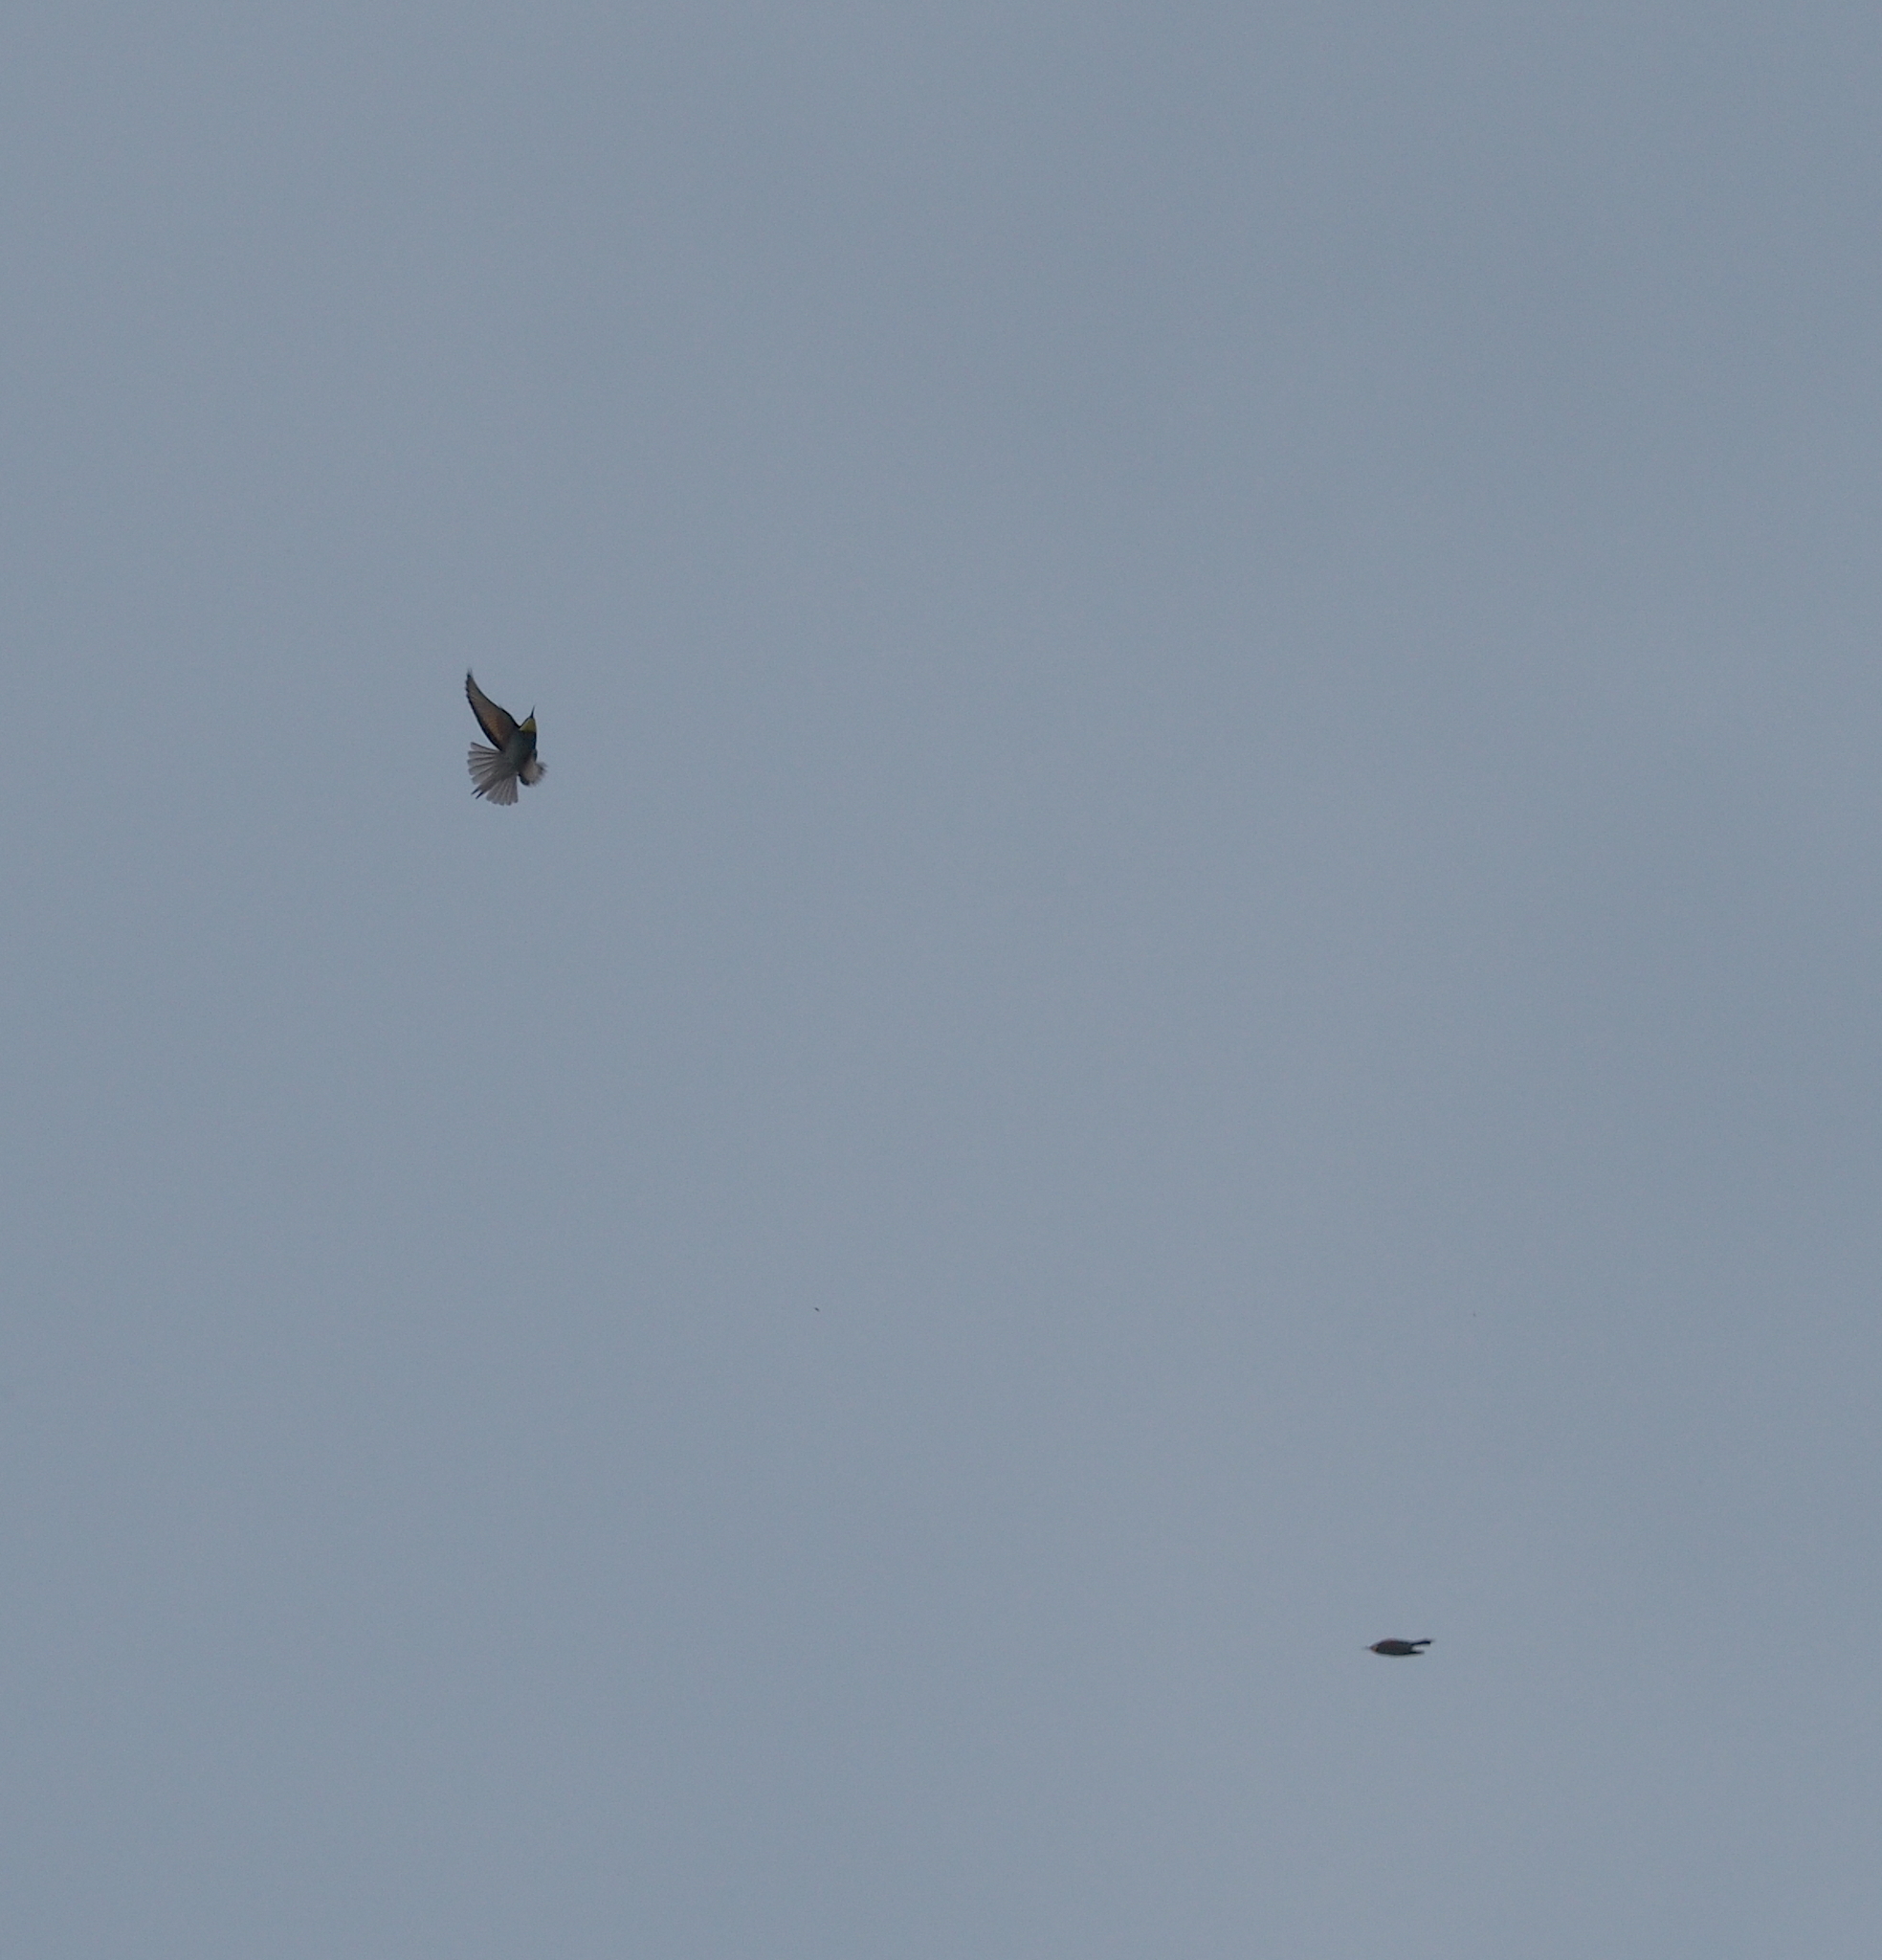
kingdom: Animalia
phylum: Chordata
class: Aves
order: Coraciiformes
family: Meropidae
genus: Merops
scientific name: Merops apiaster
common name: European bee-eater
